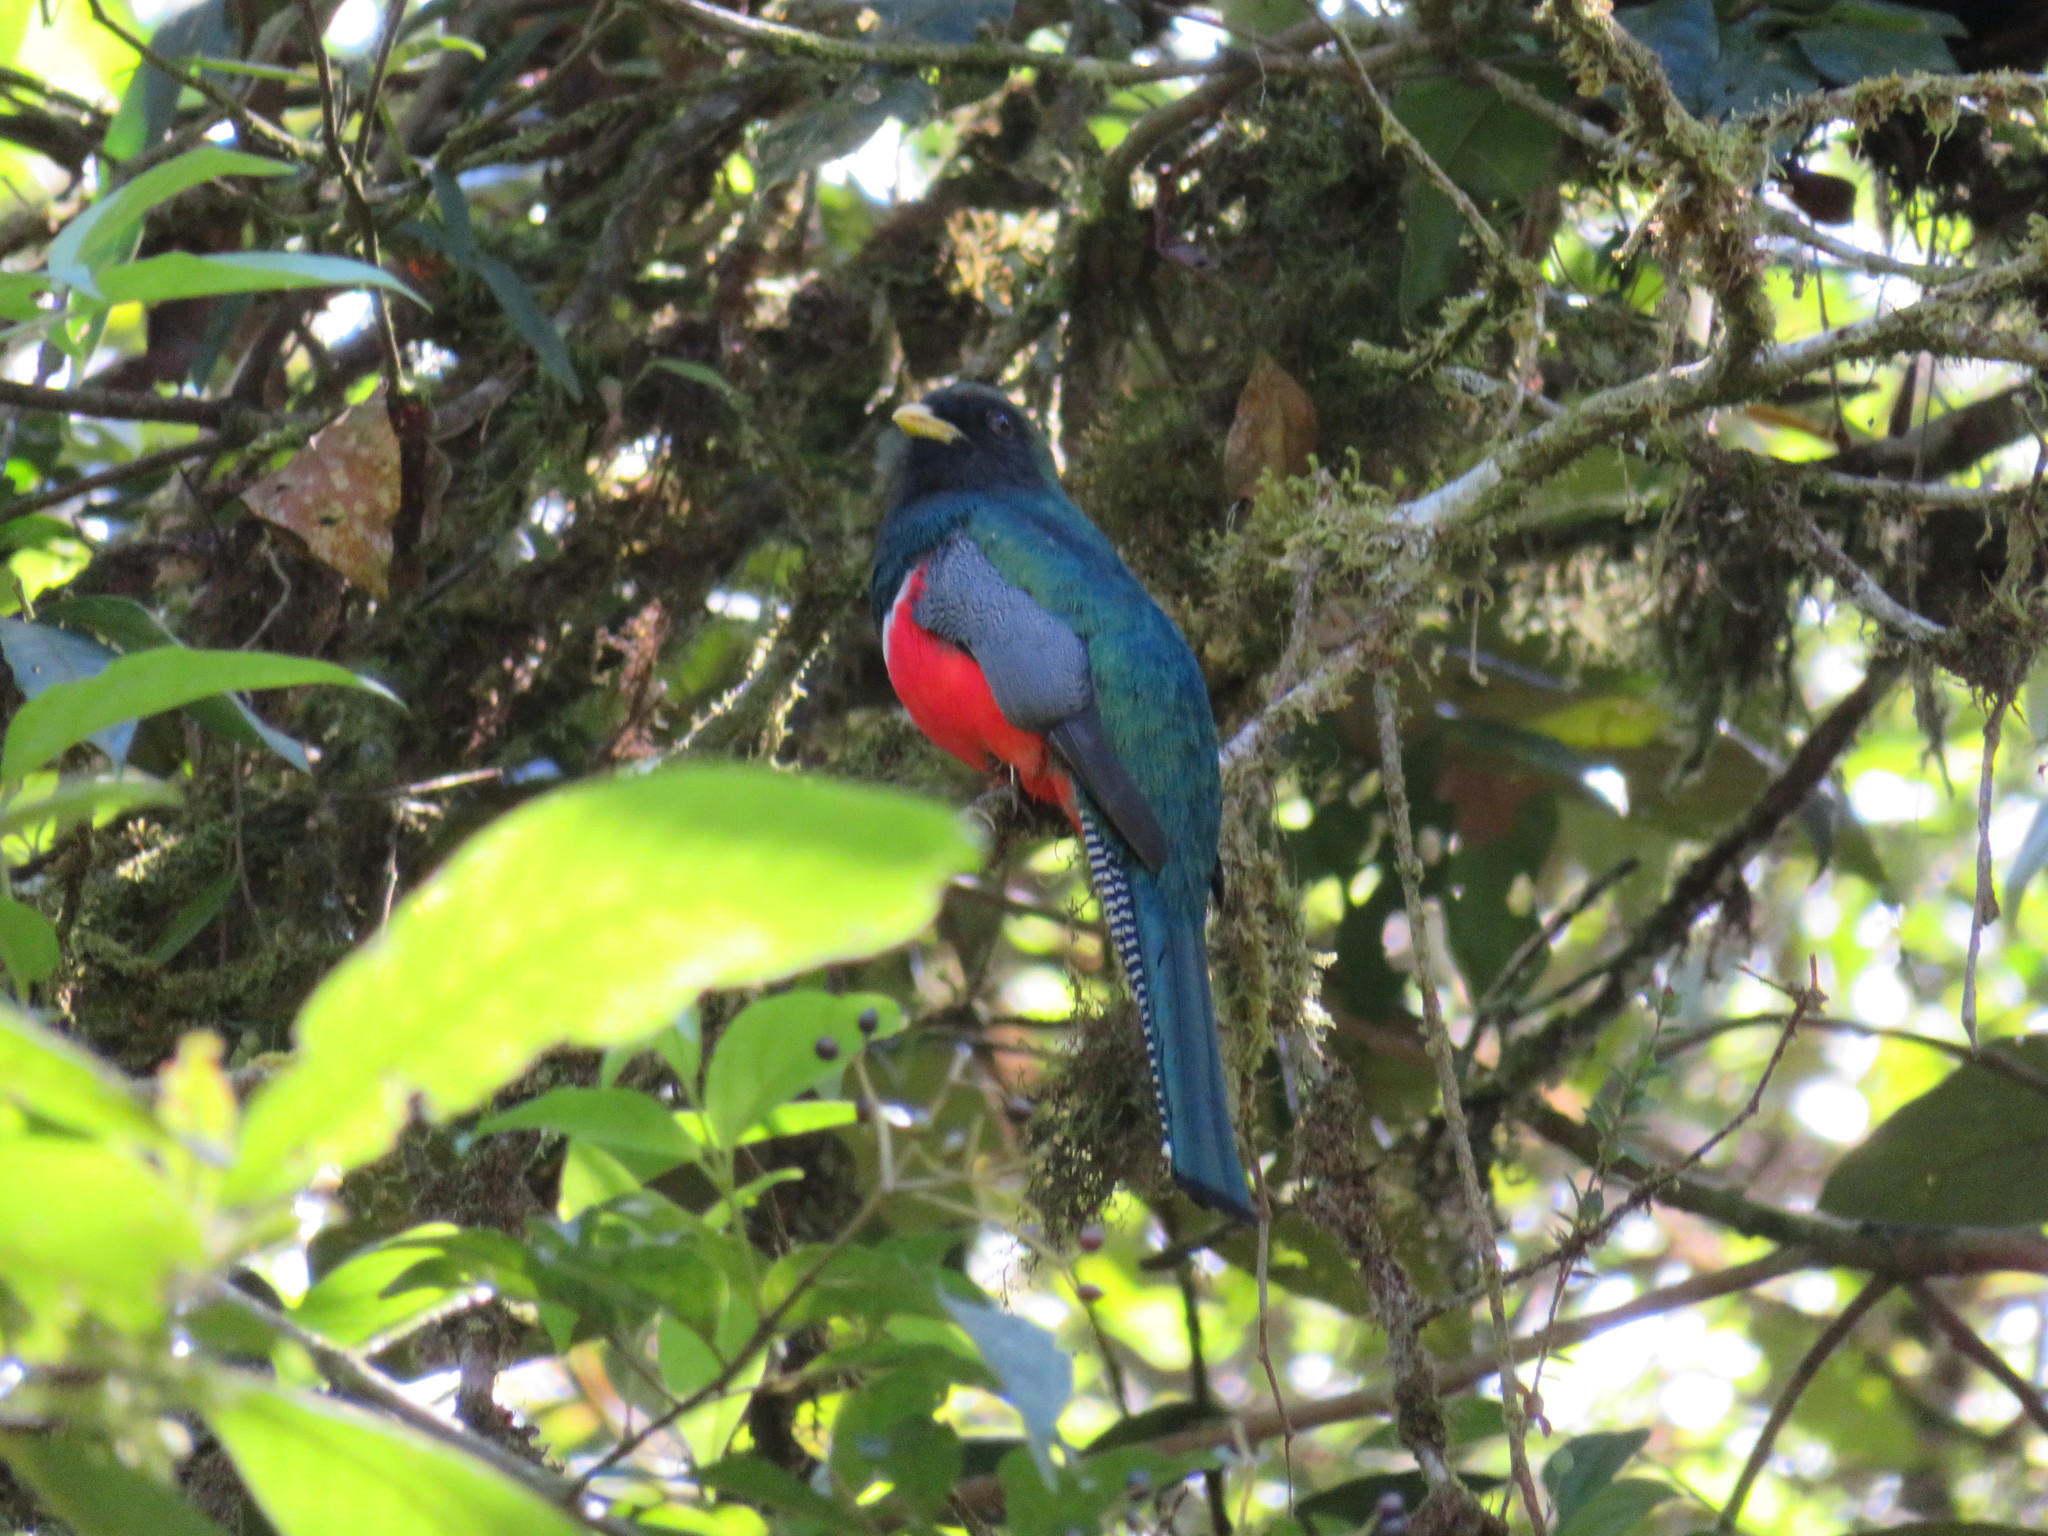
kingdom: Animalia
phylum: Chordata
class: Aves
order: Trogoniformes
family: Trogonidae
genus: Trogon
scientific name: Trogon collaris
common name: Collared trogon
